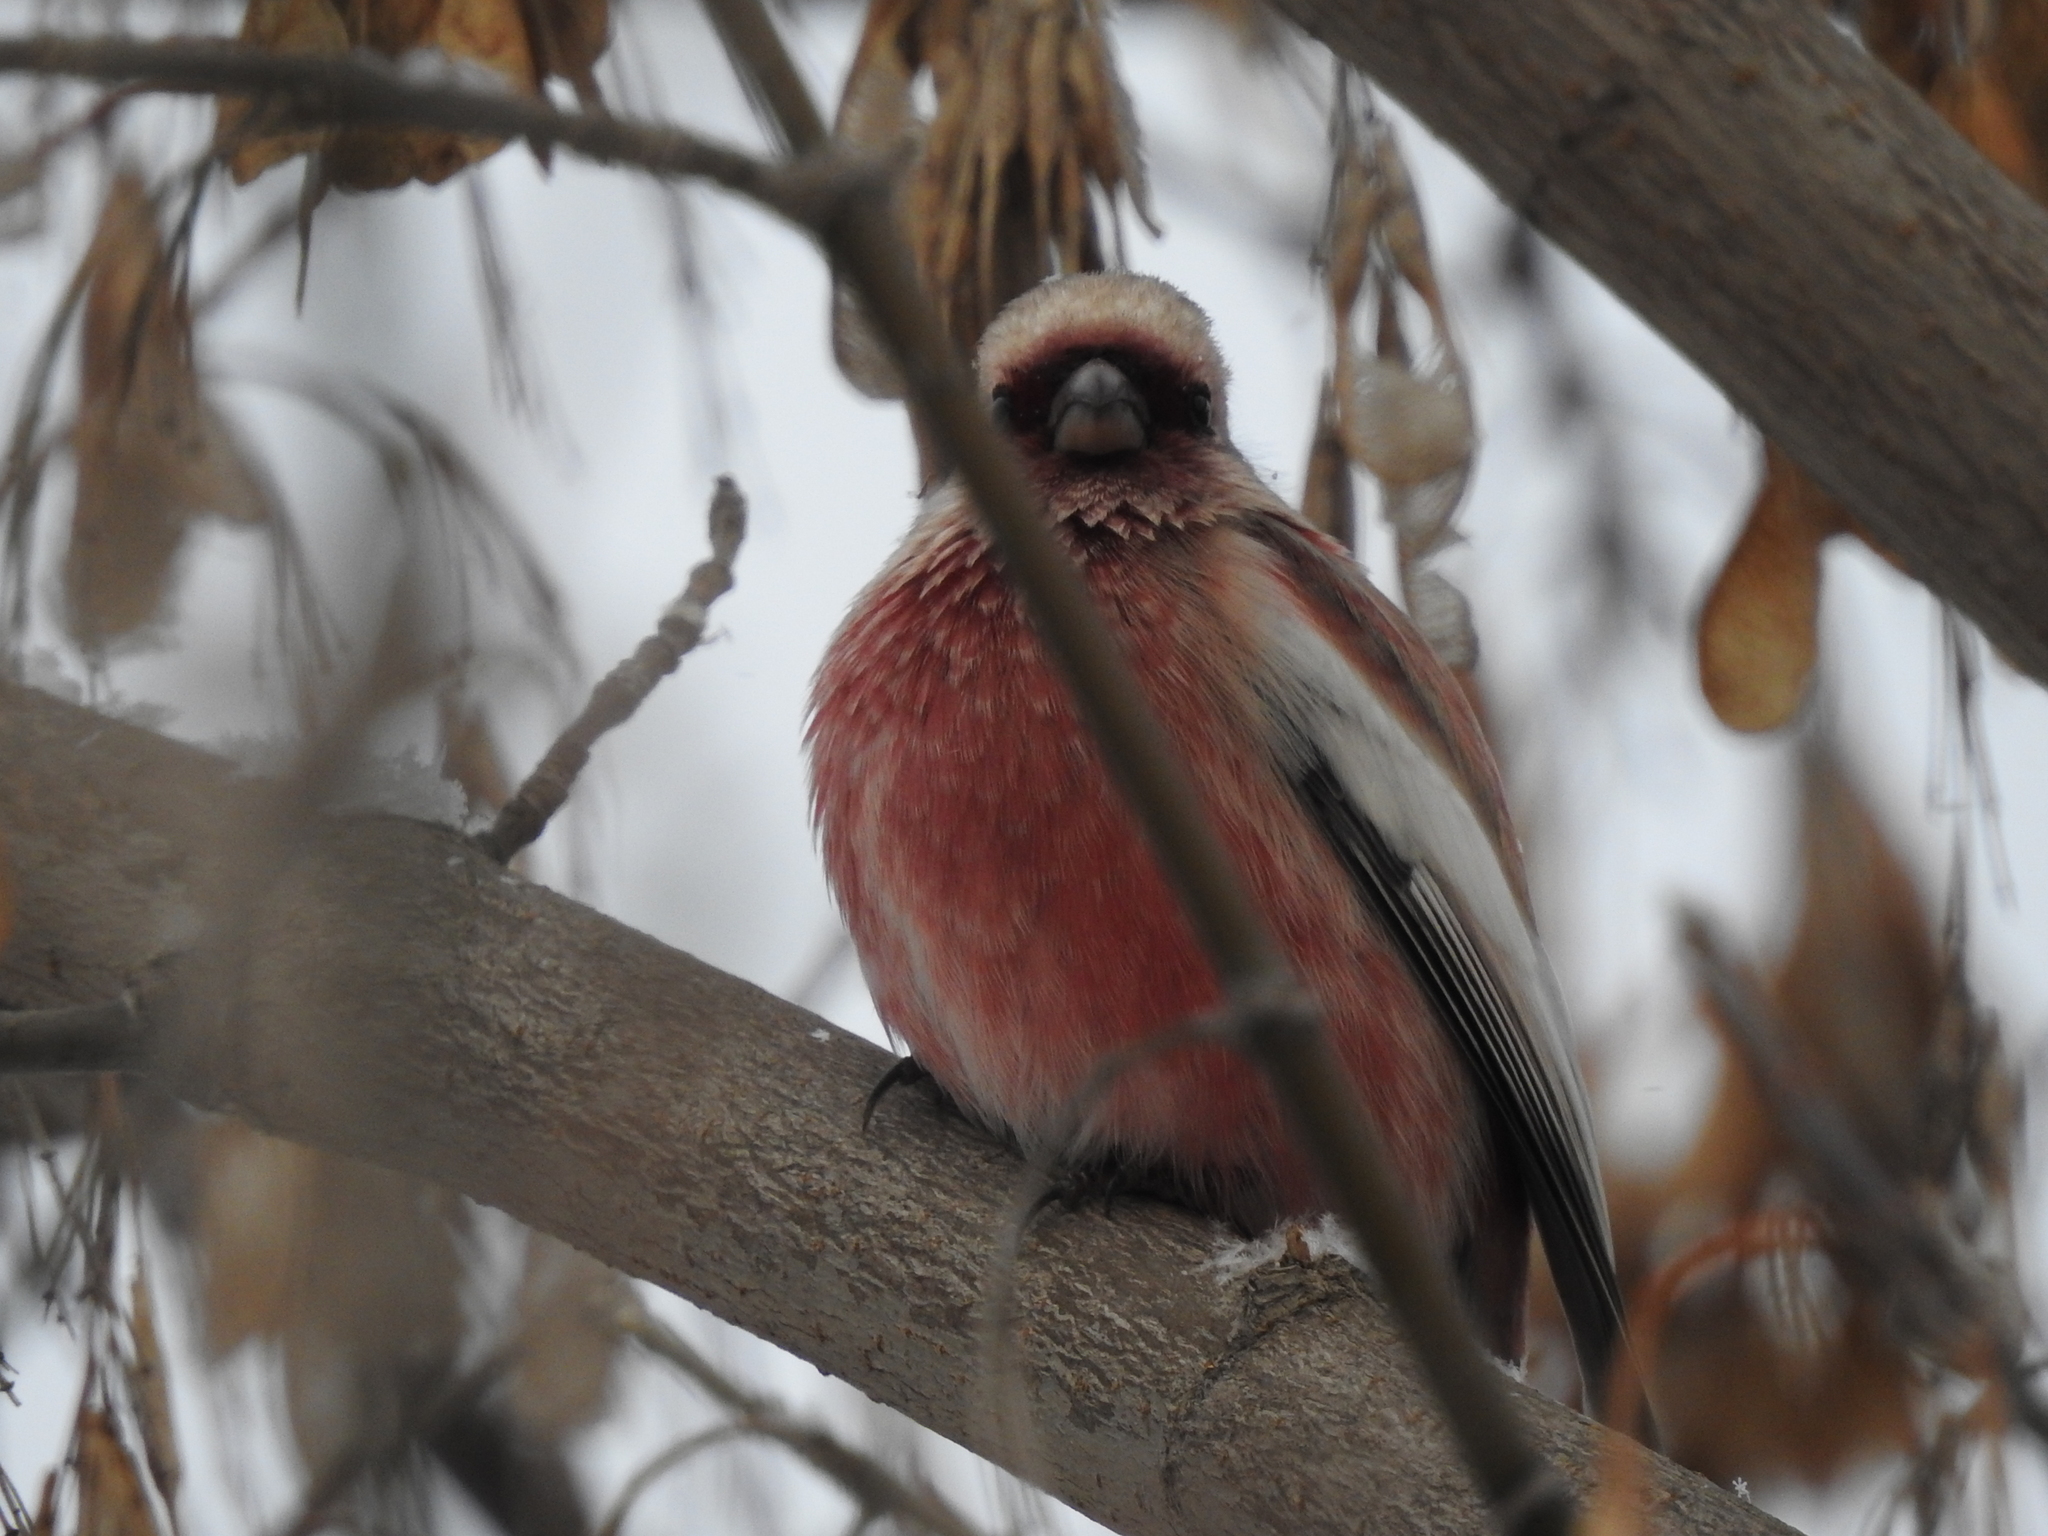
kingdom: Animalia
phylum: Chordata
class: Aves
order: Passeriformes
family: Fringillidae
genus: Carpodacus
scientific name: Carpodacus sibiricus
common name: Long-tailed rosefinch
